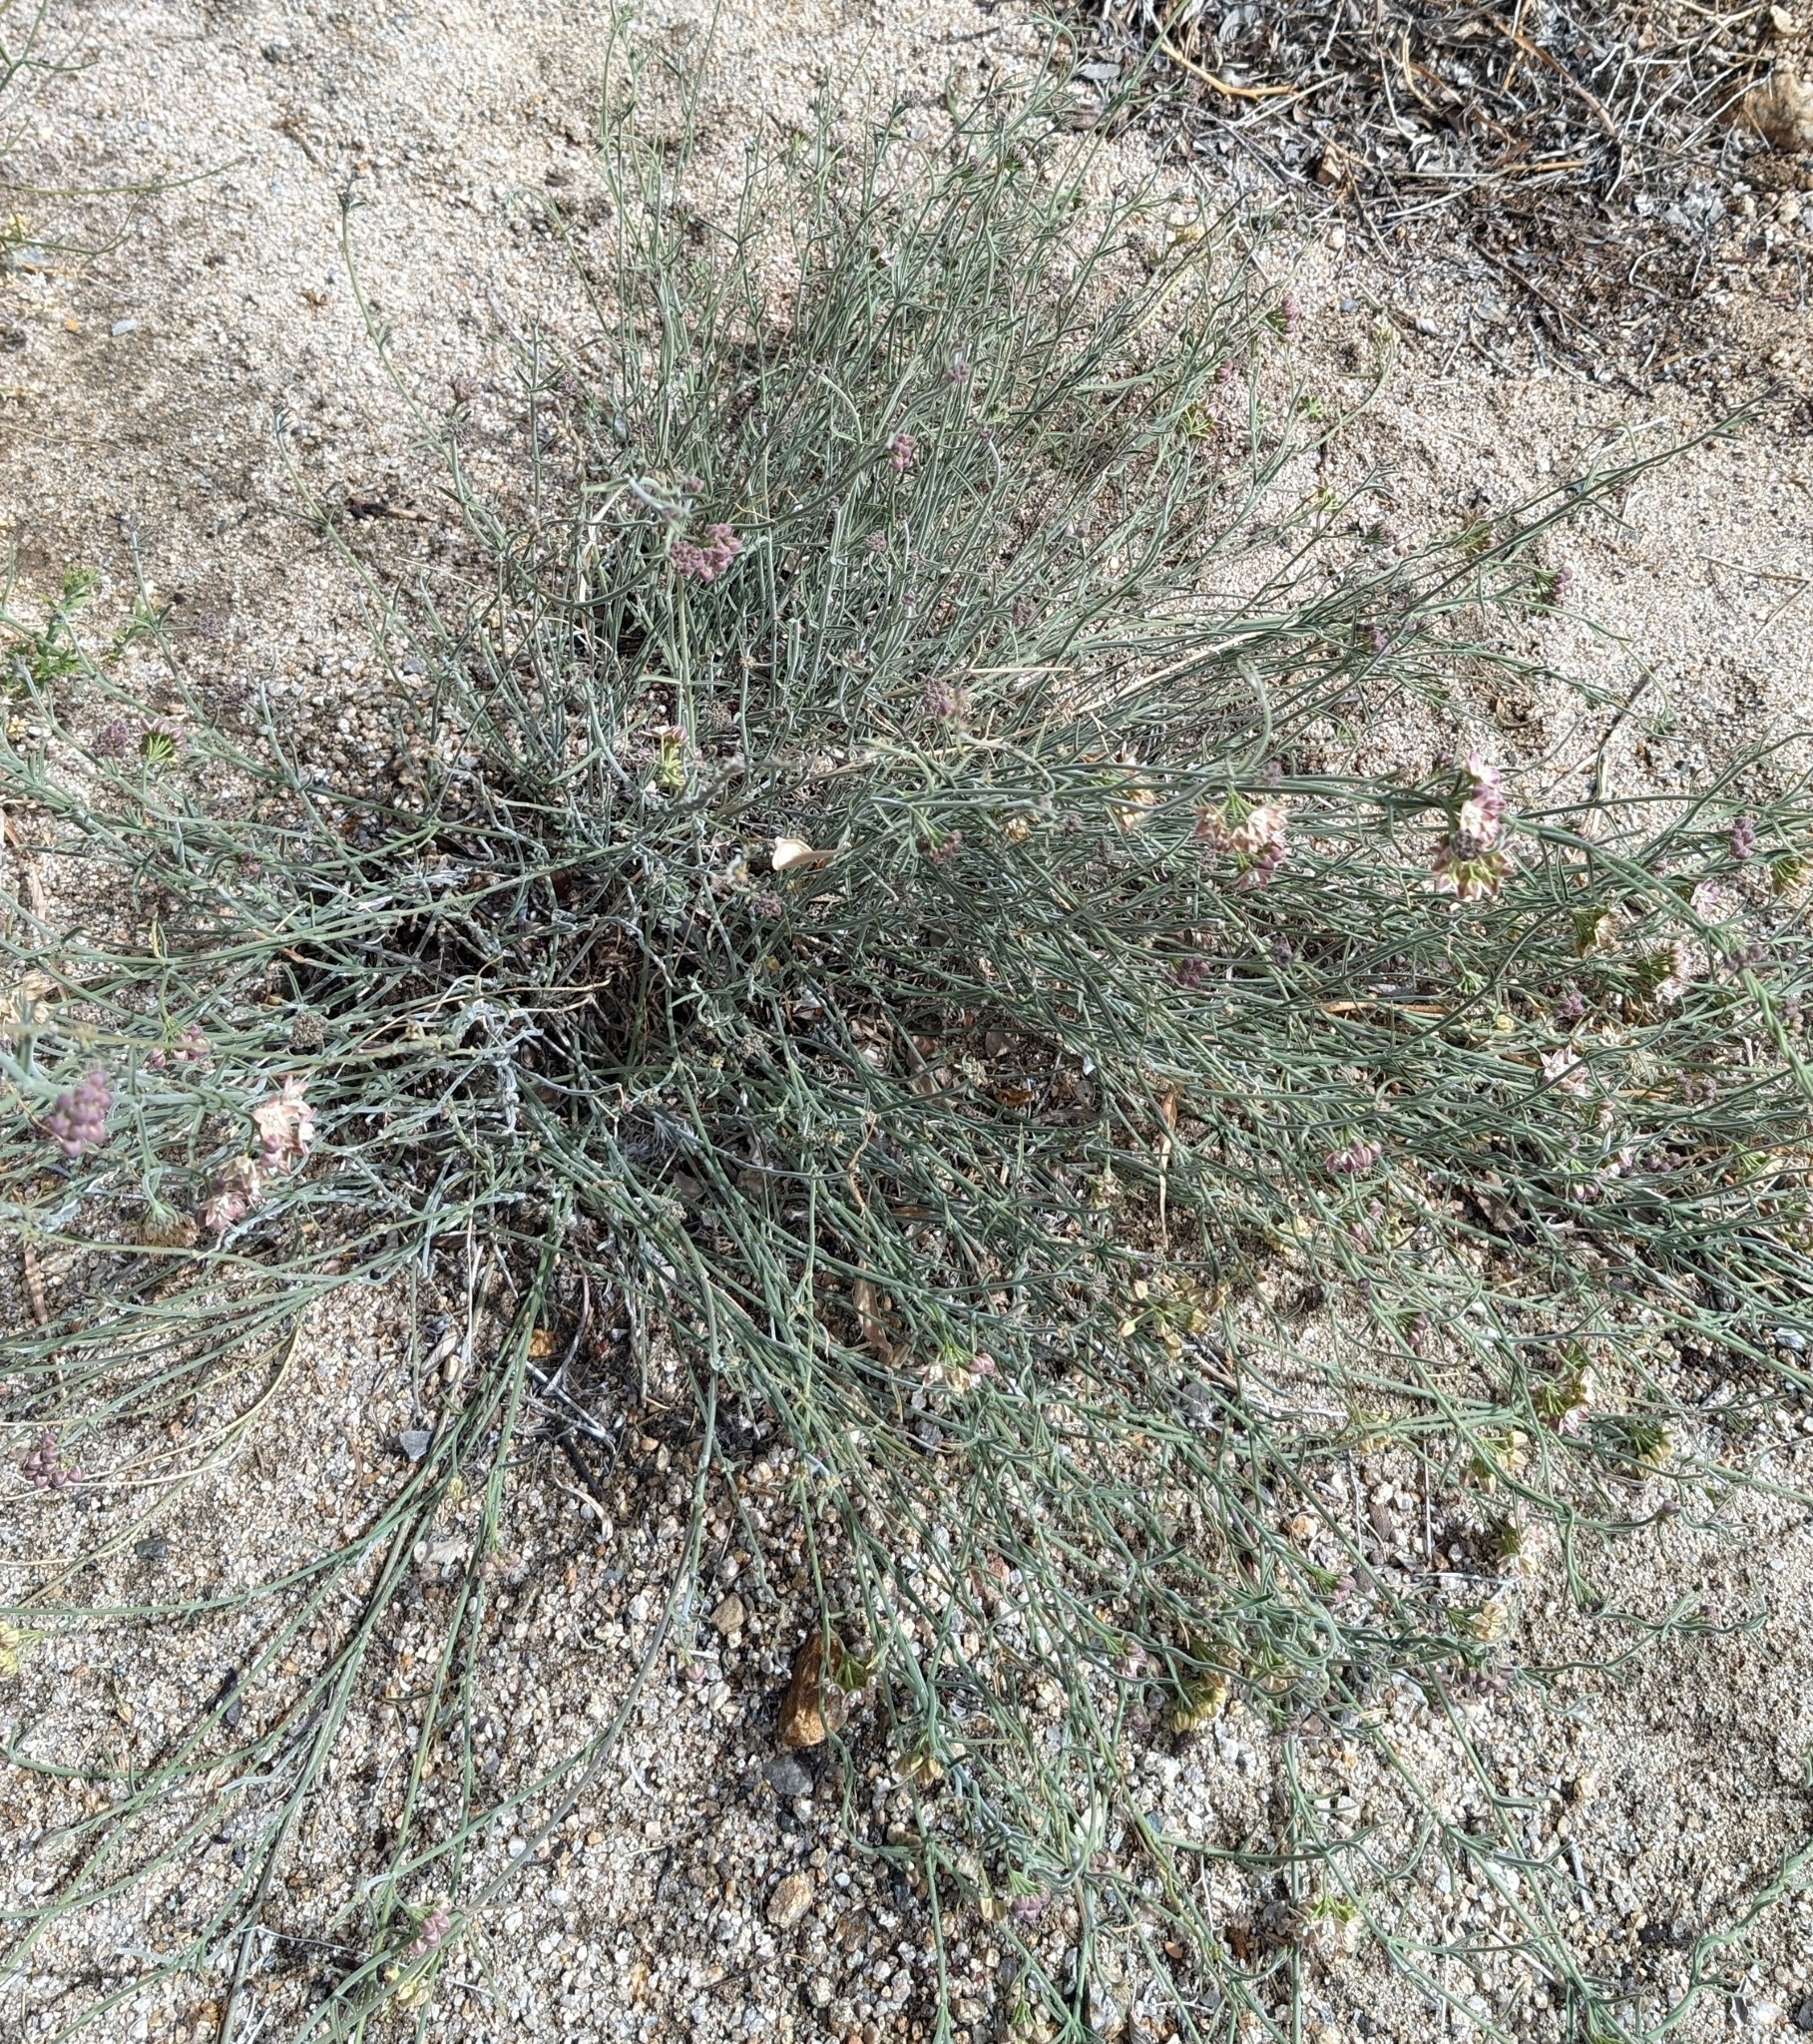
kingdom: Plantae
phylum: Tracheophyta
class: Magnoliopsida
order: Gentianales
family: Apocynaceae
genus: Funastrum
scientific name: Funastrum hirtellum
